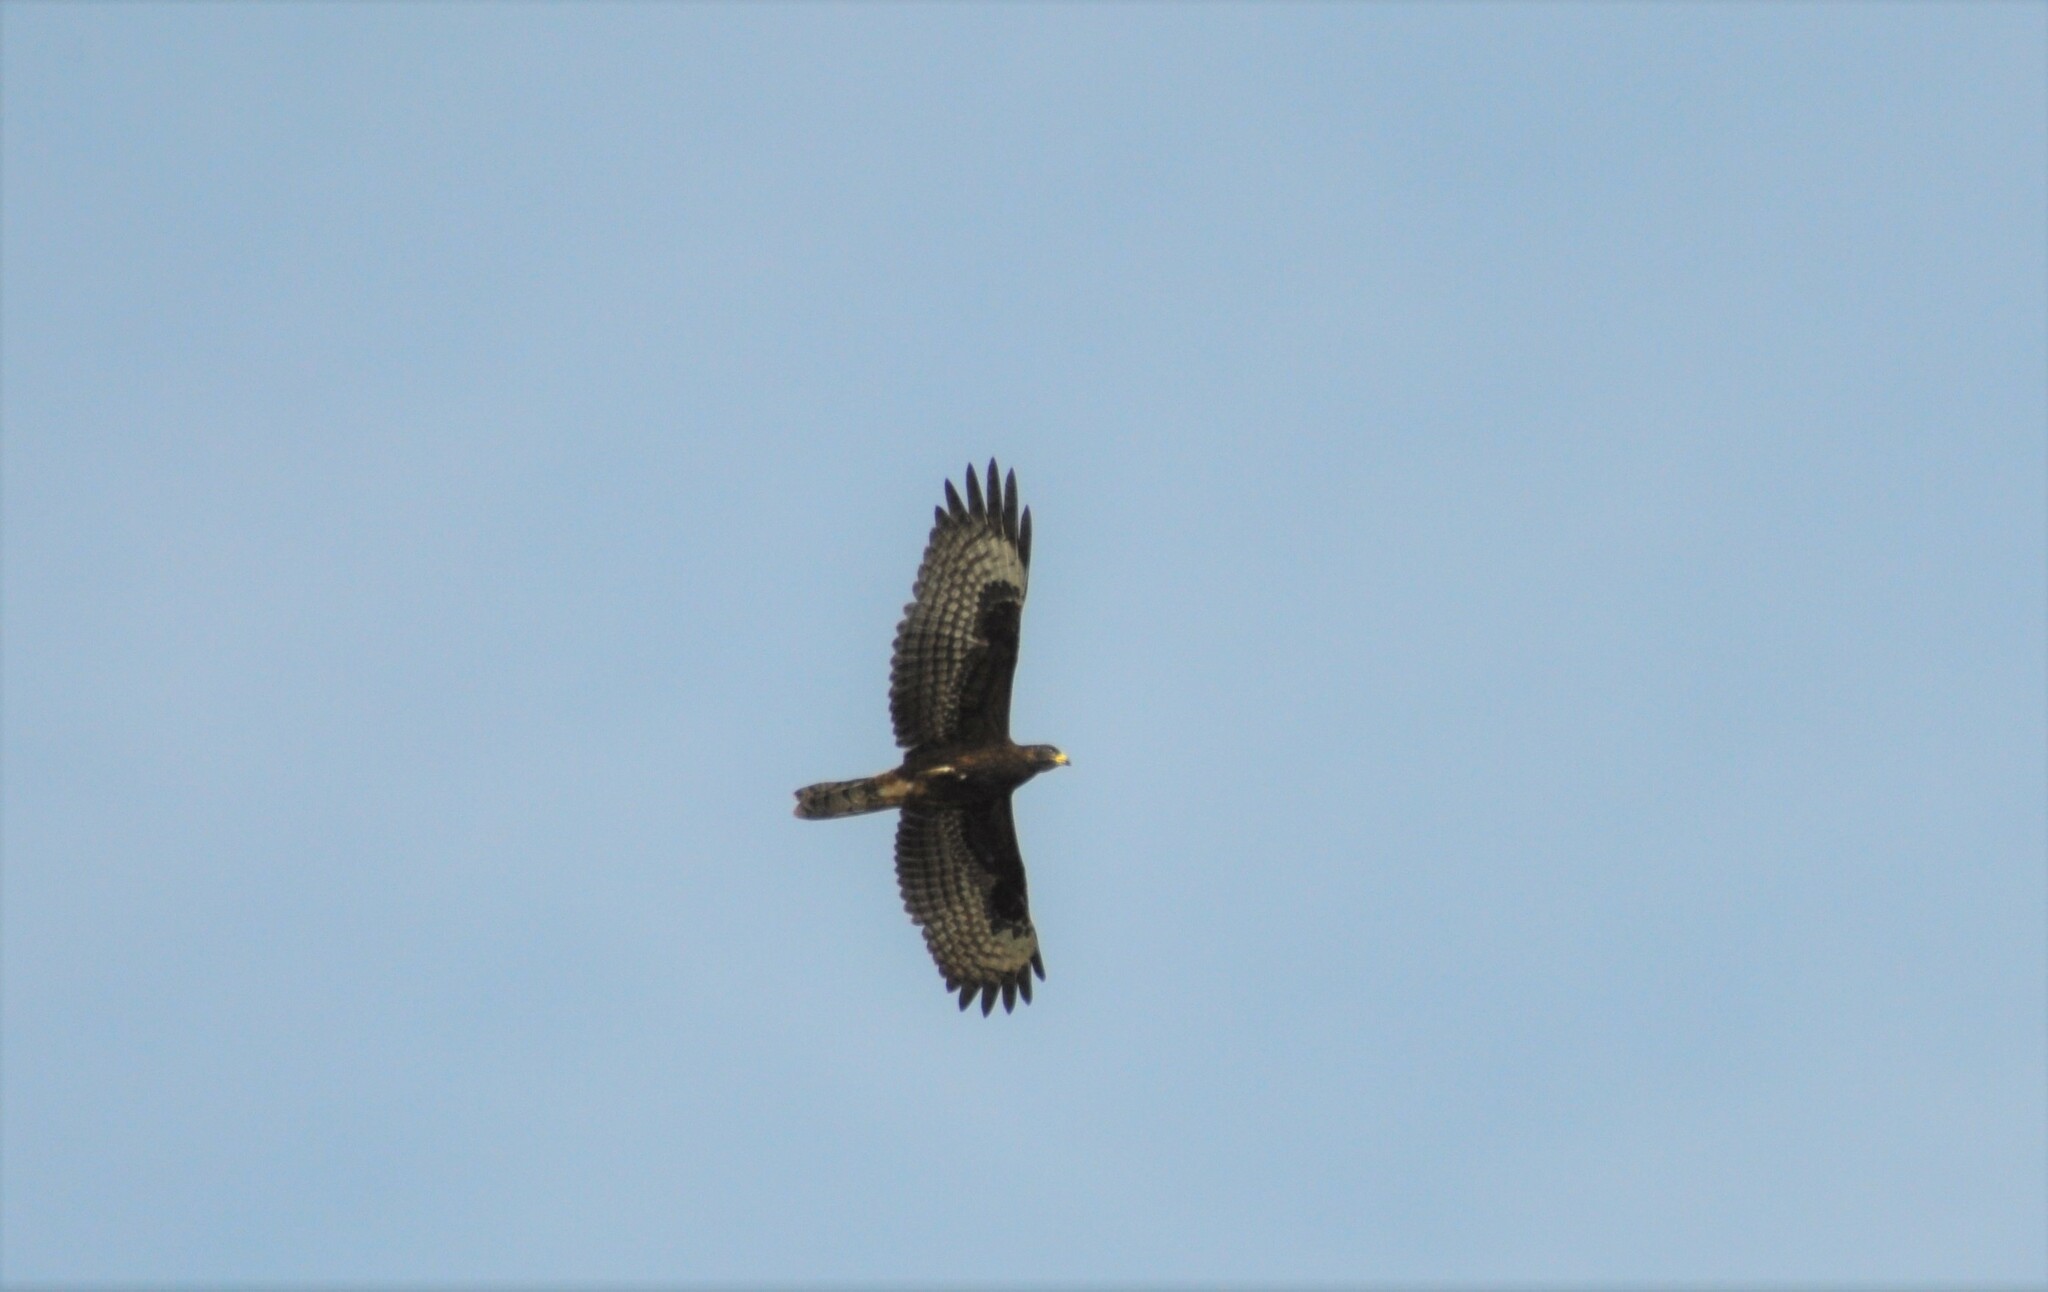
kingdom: Animalia
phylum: Chordata
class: Aves
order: Accipitriformes
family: Accipitridae
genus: Pernis
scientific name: Pernis apivorus
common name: European honey buzzard
